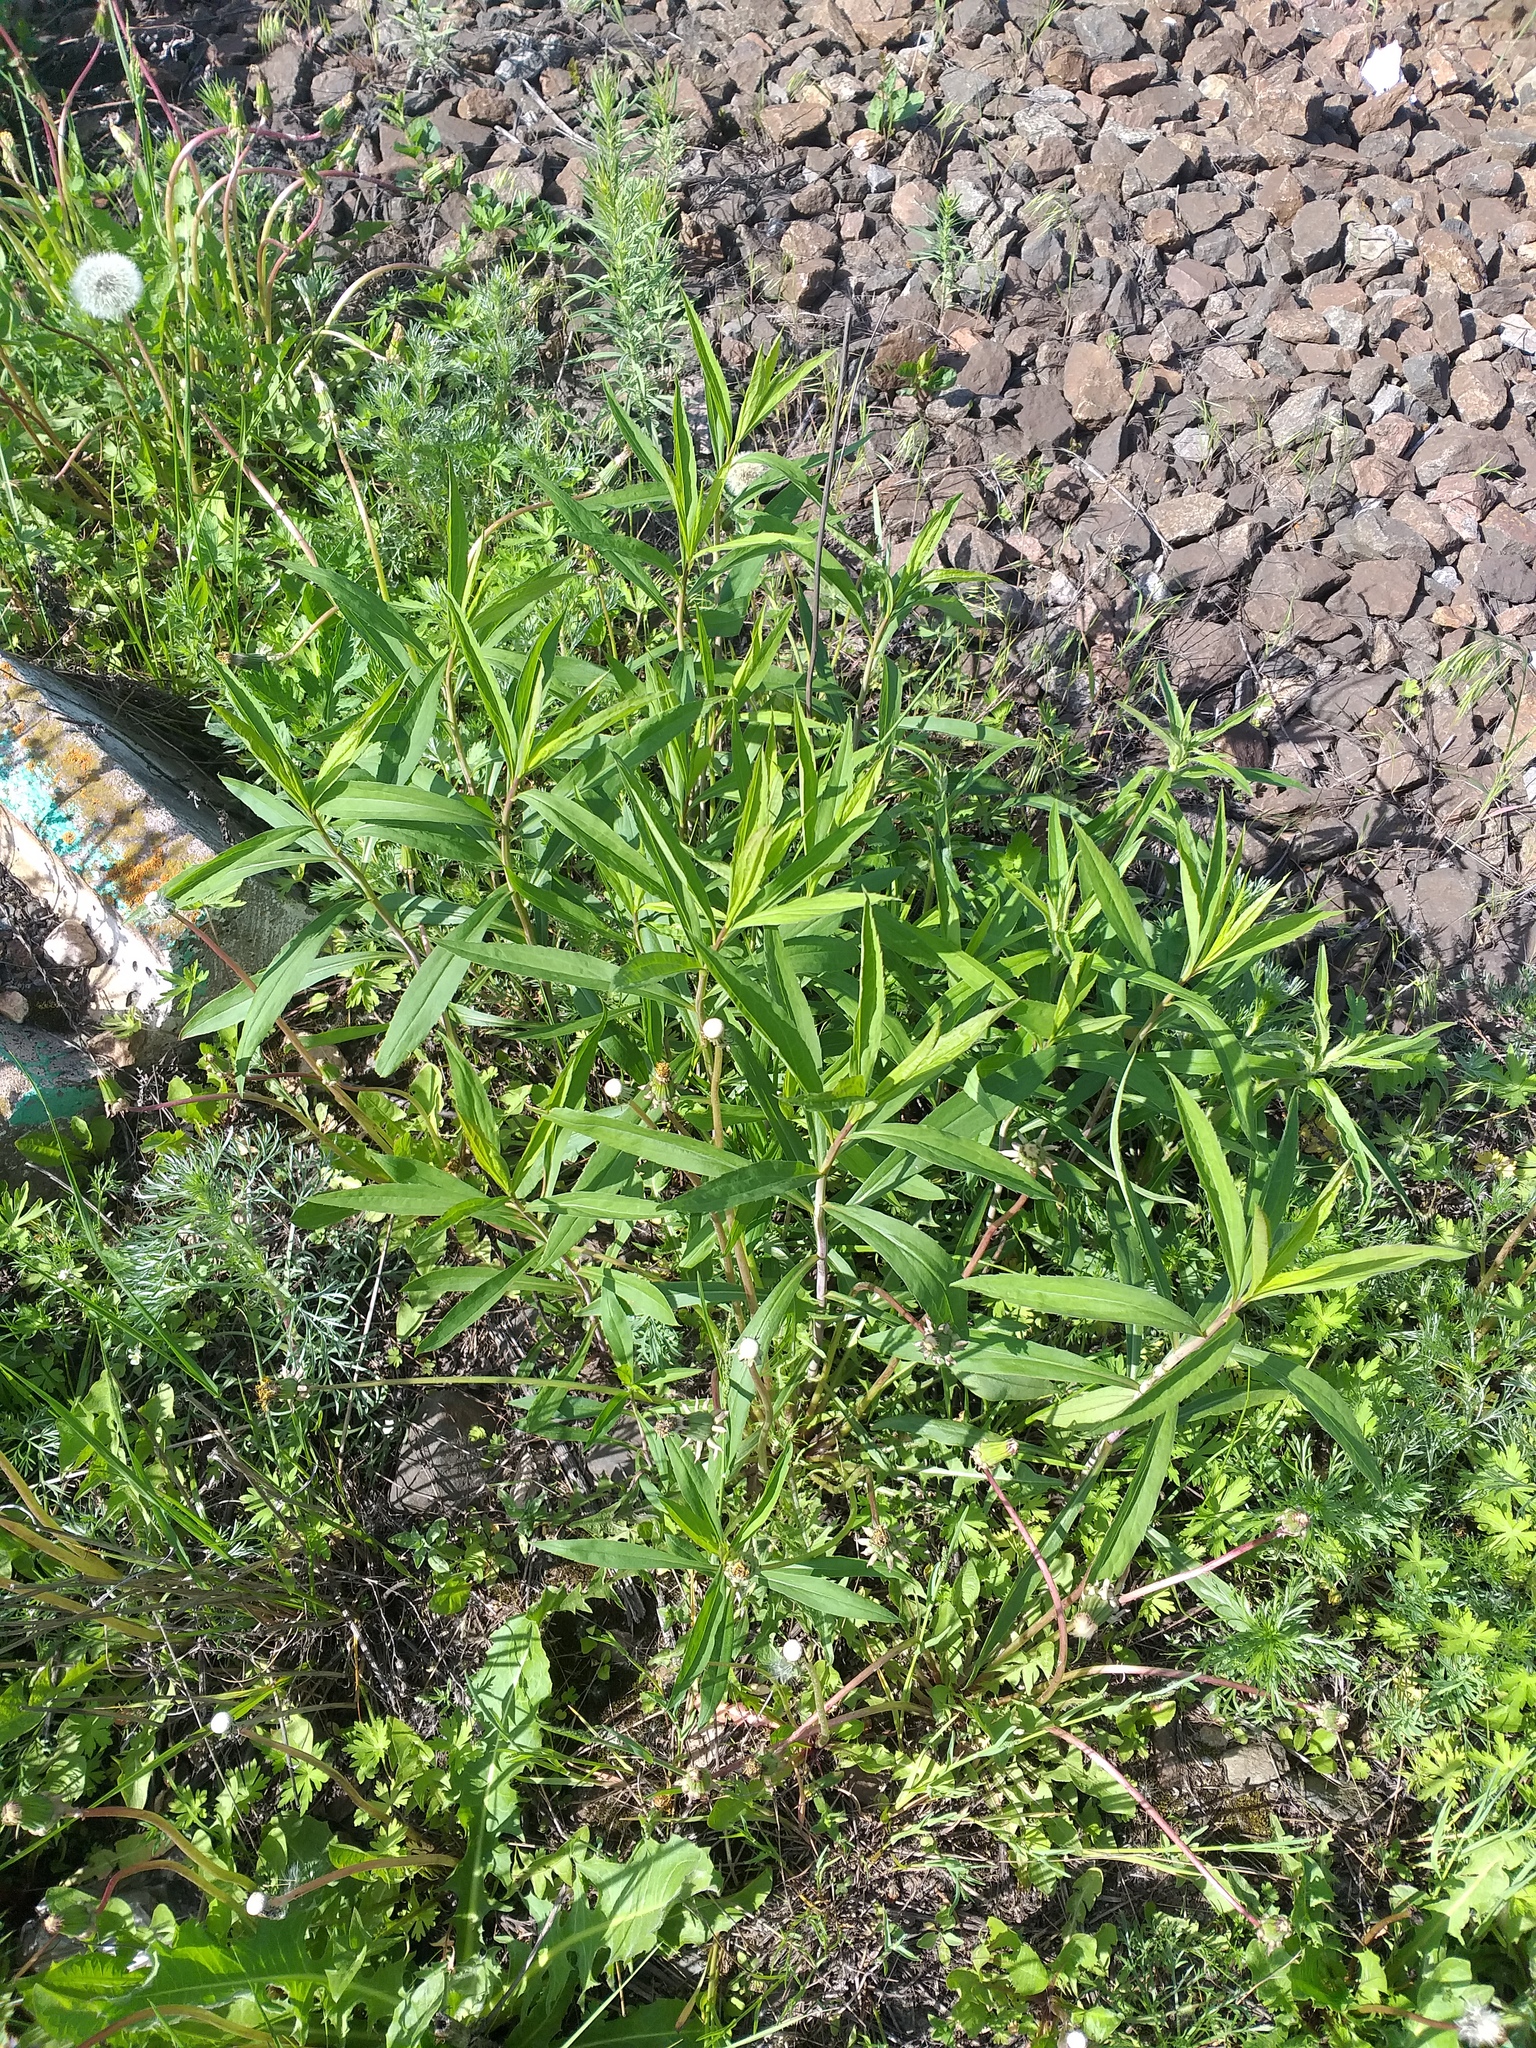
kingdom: Plantae
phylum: Tracheophyta
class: Magnoliopsida
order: Asterales
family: Asteraceae
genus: Solidago
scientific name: Solidago gigantea
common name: Giant goldenrod
